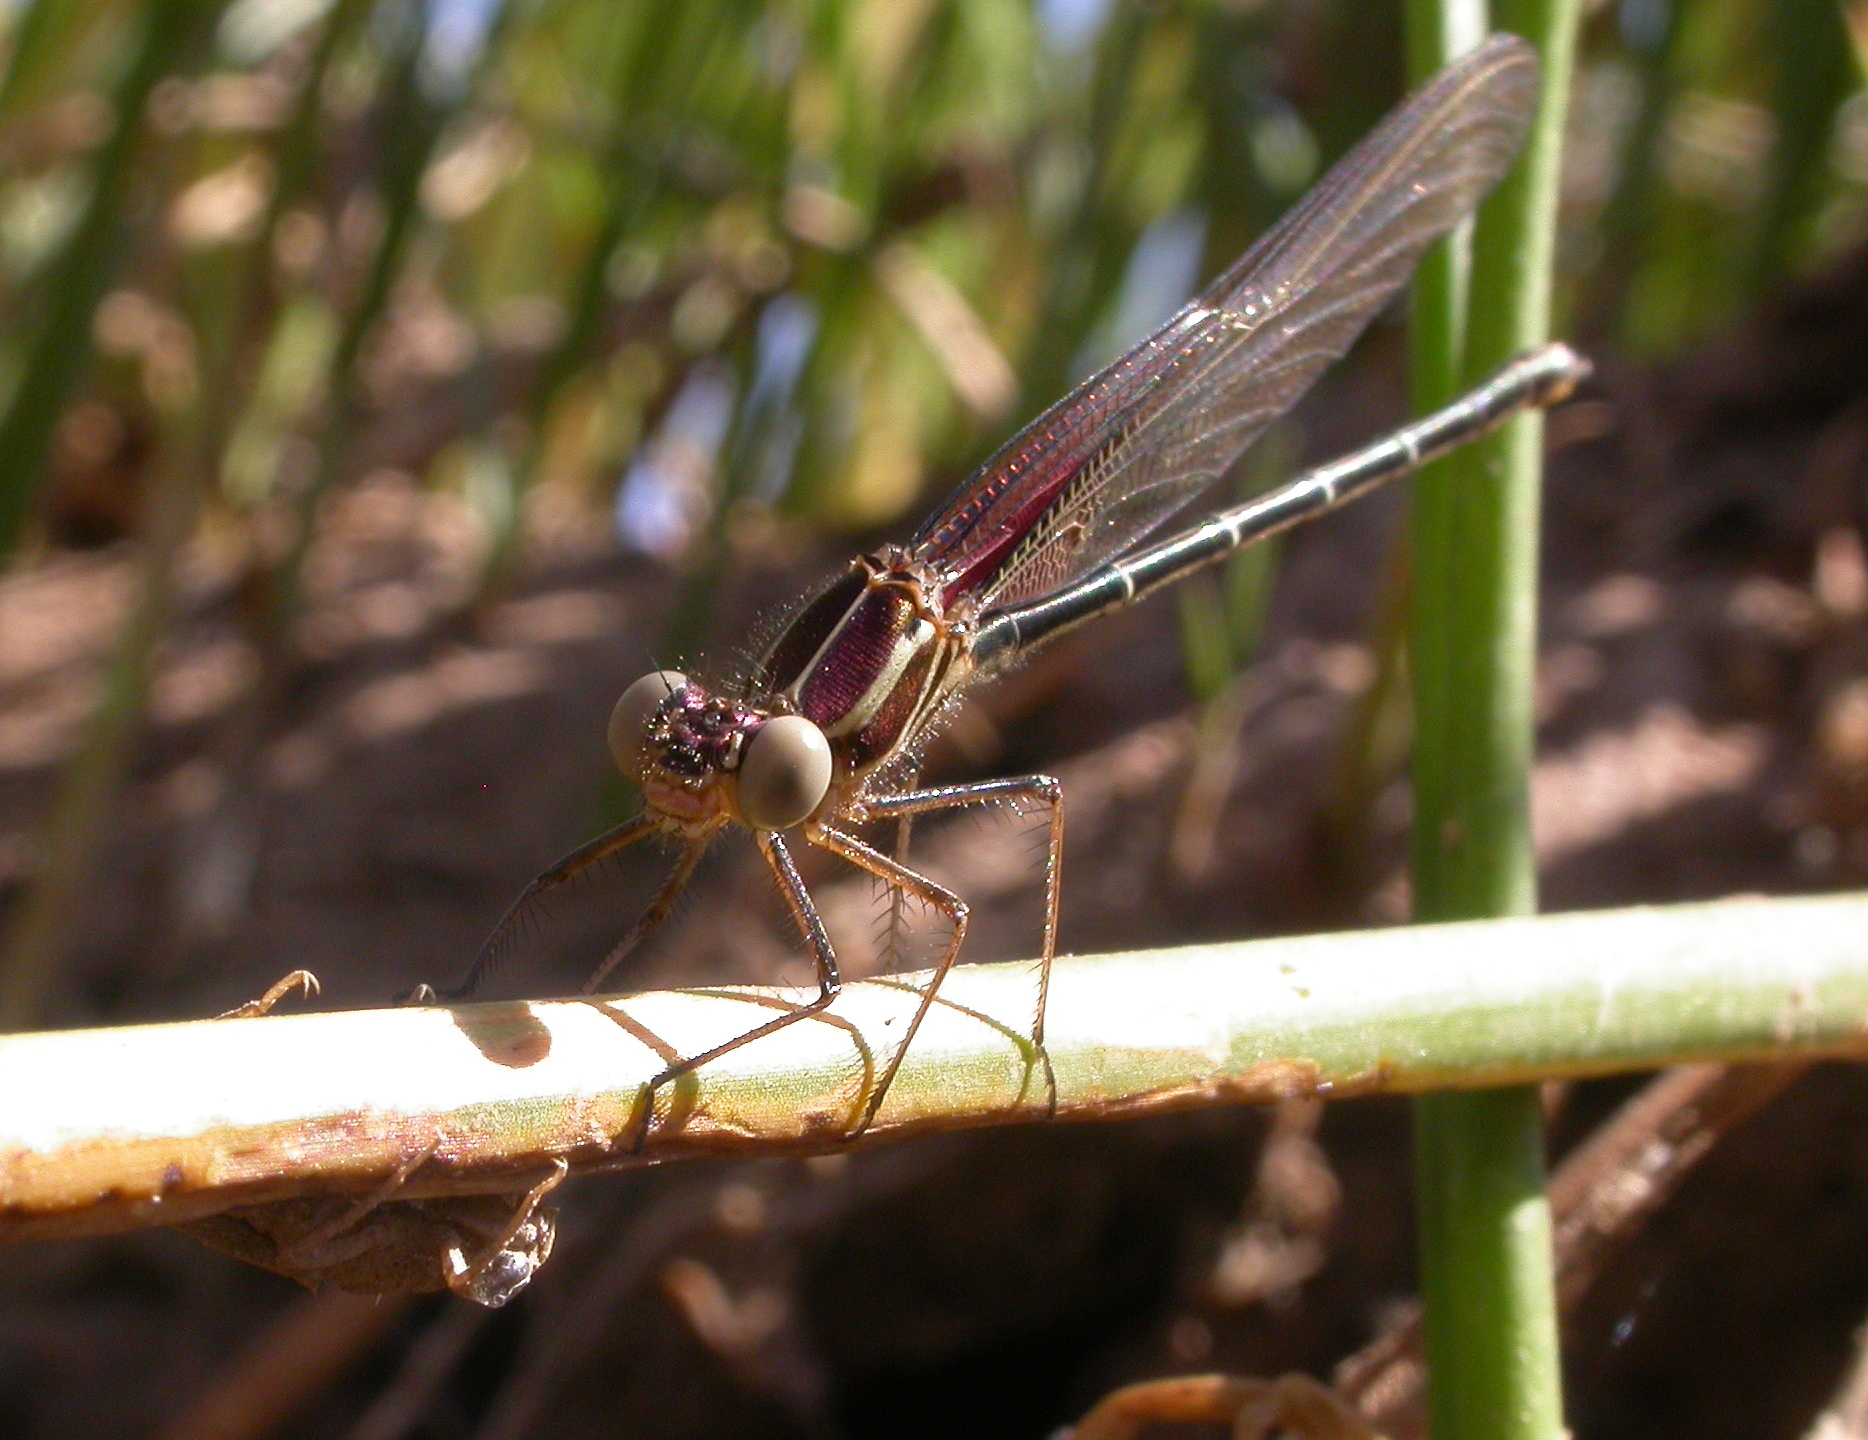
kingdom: Animalia
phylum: Arthropoda
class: Insecta
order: Odonata
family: Calopterygidae
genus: Hetaerina
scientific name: Hetaerina americana
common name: American rubyspot
